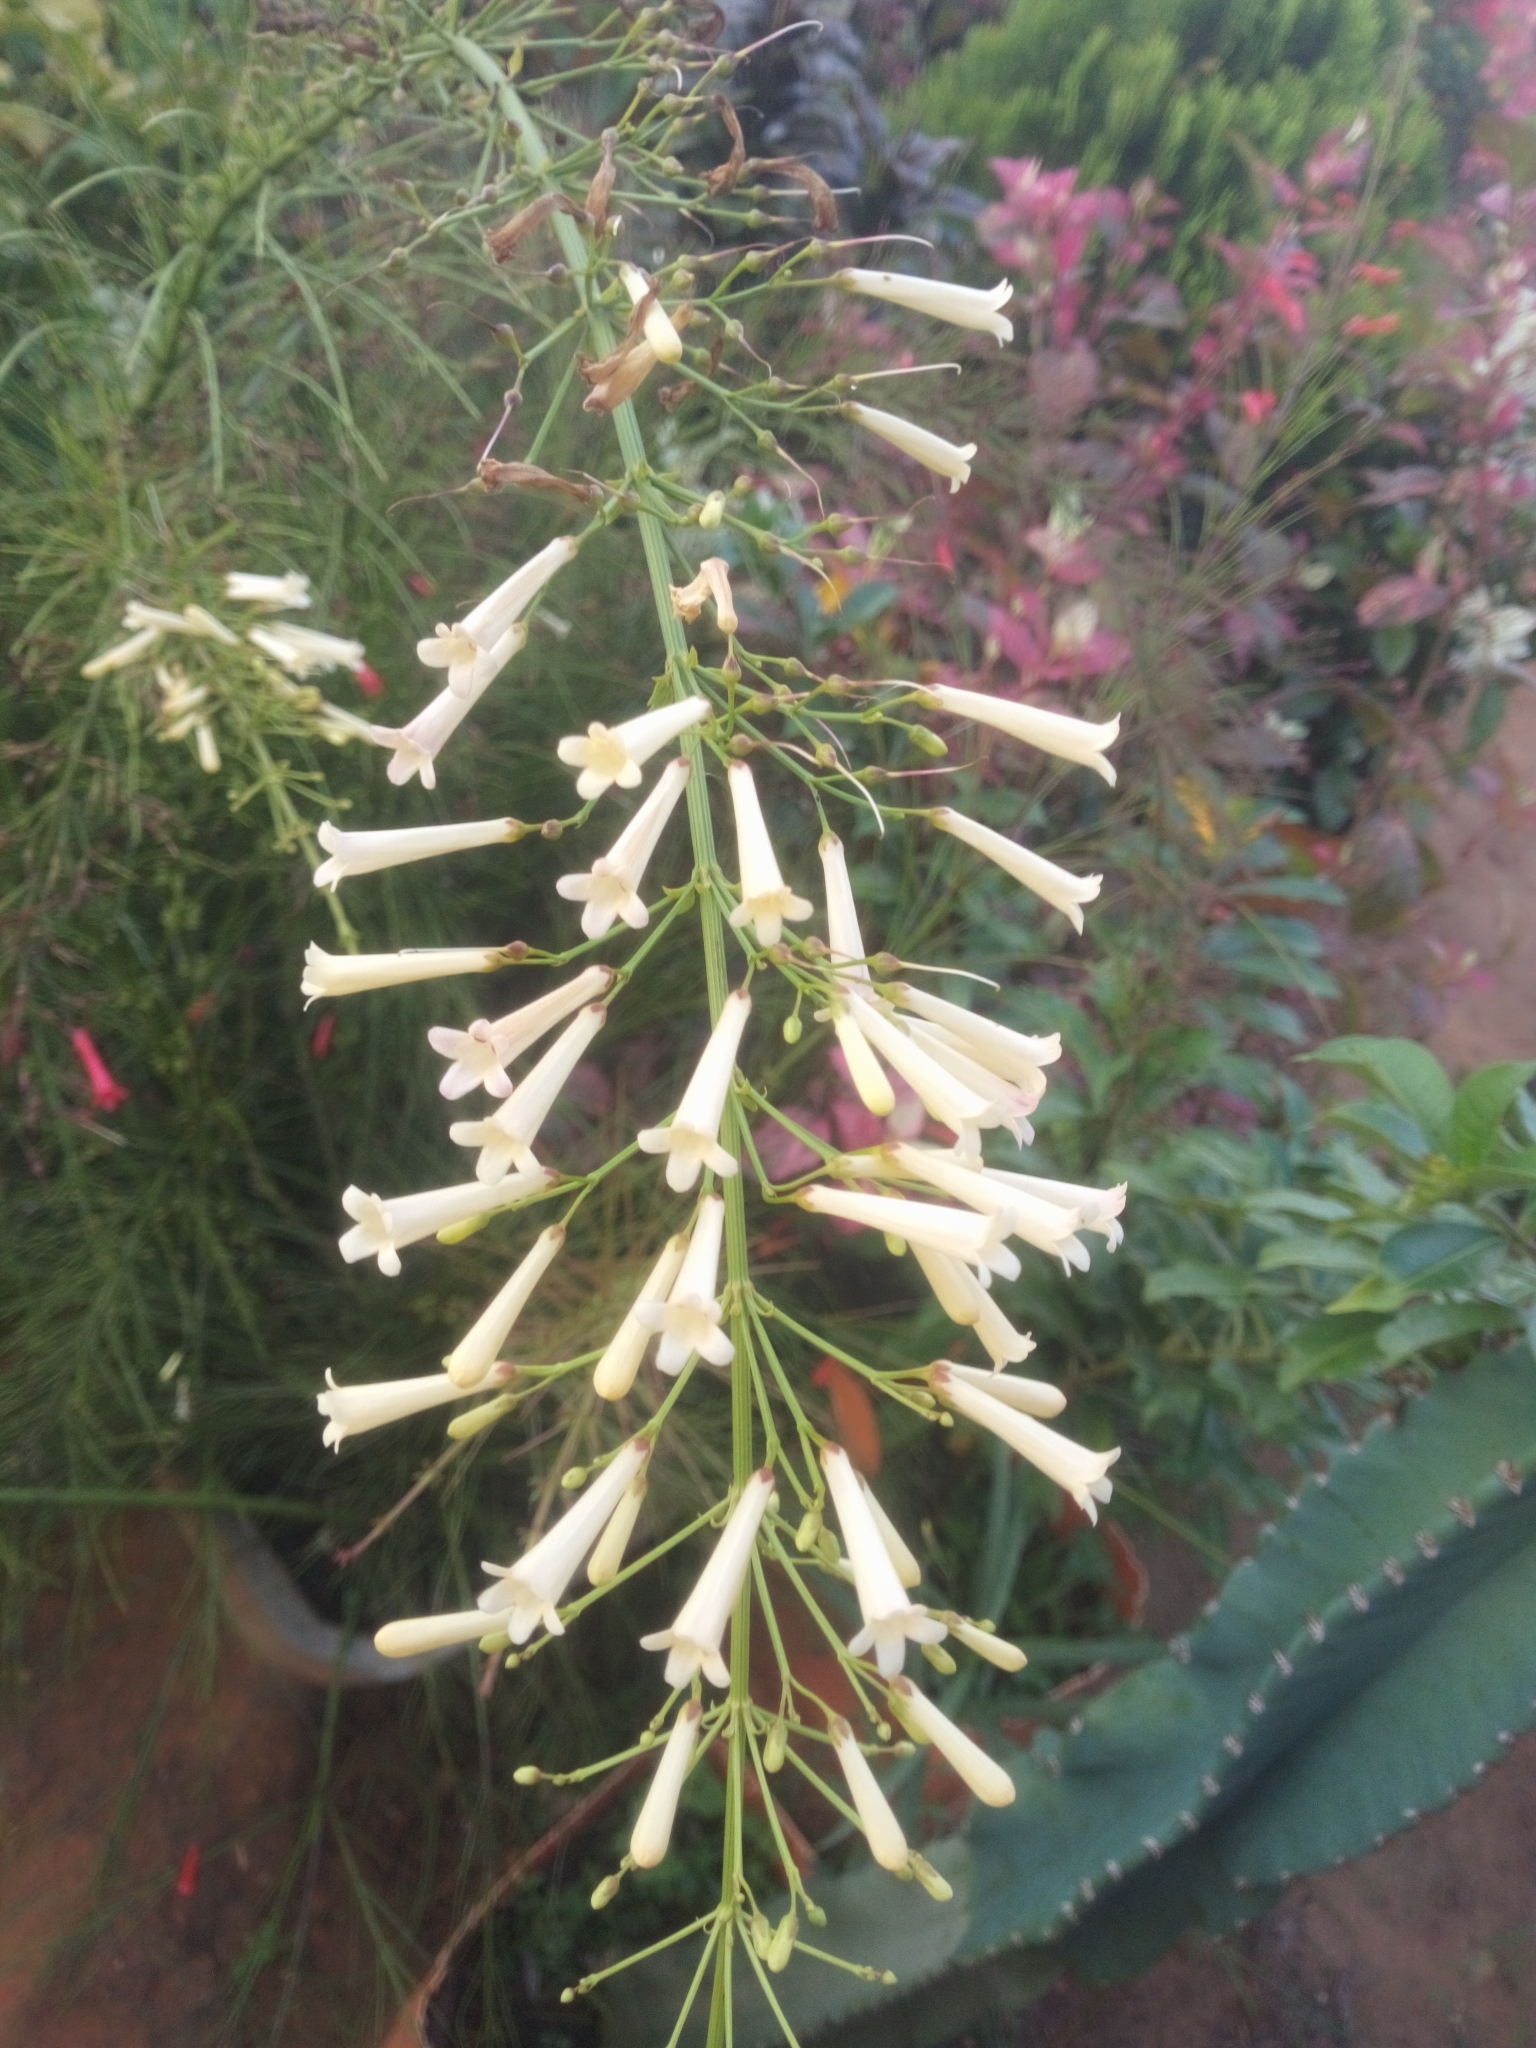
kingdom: Plantae
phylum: Tracheophyta
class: Magnoliopsida
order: Lamiales
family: Plantaginaceae
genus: Russelia
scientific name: Russelia equisetiformis
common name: Fountainbush
